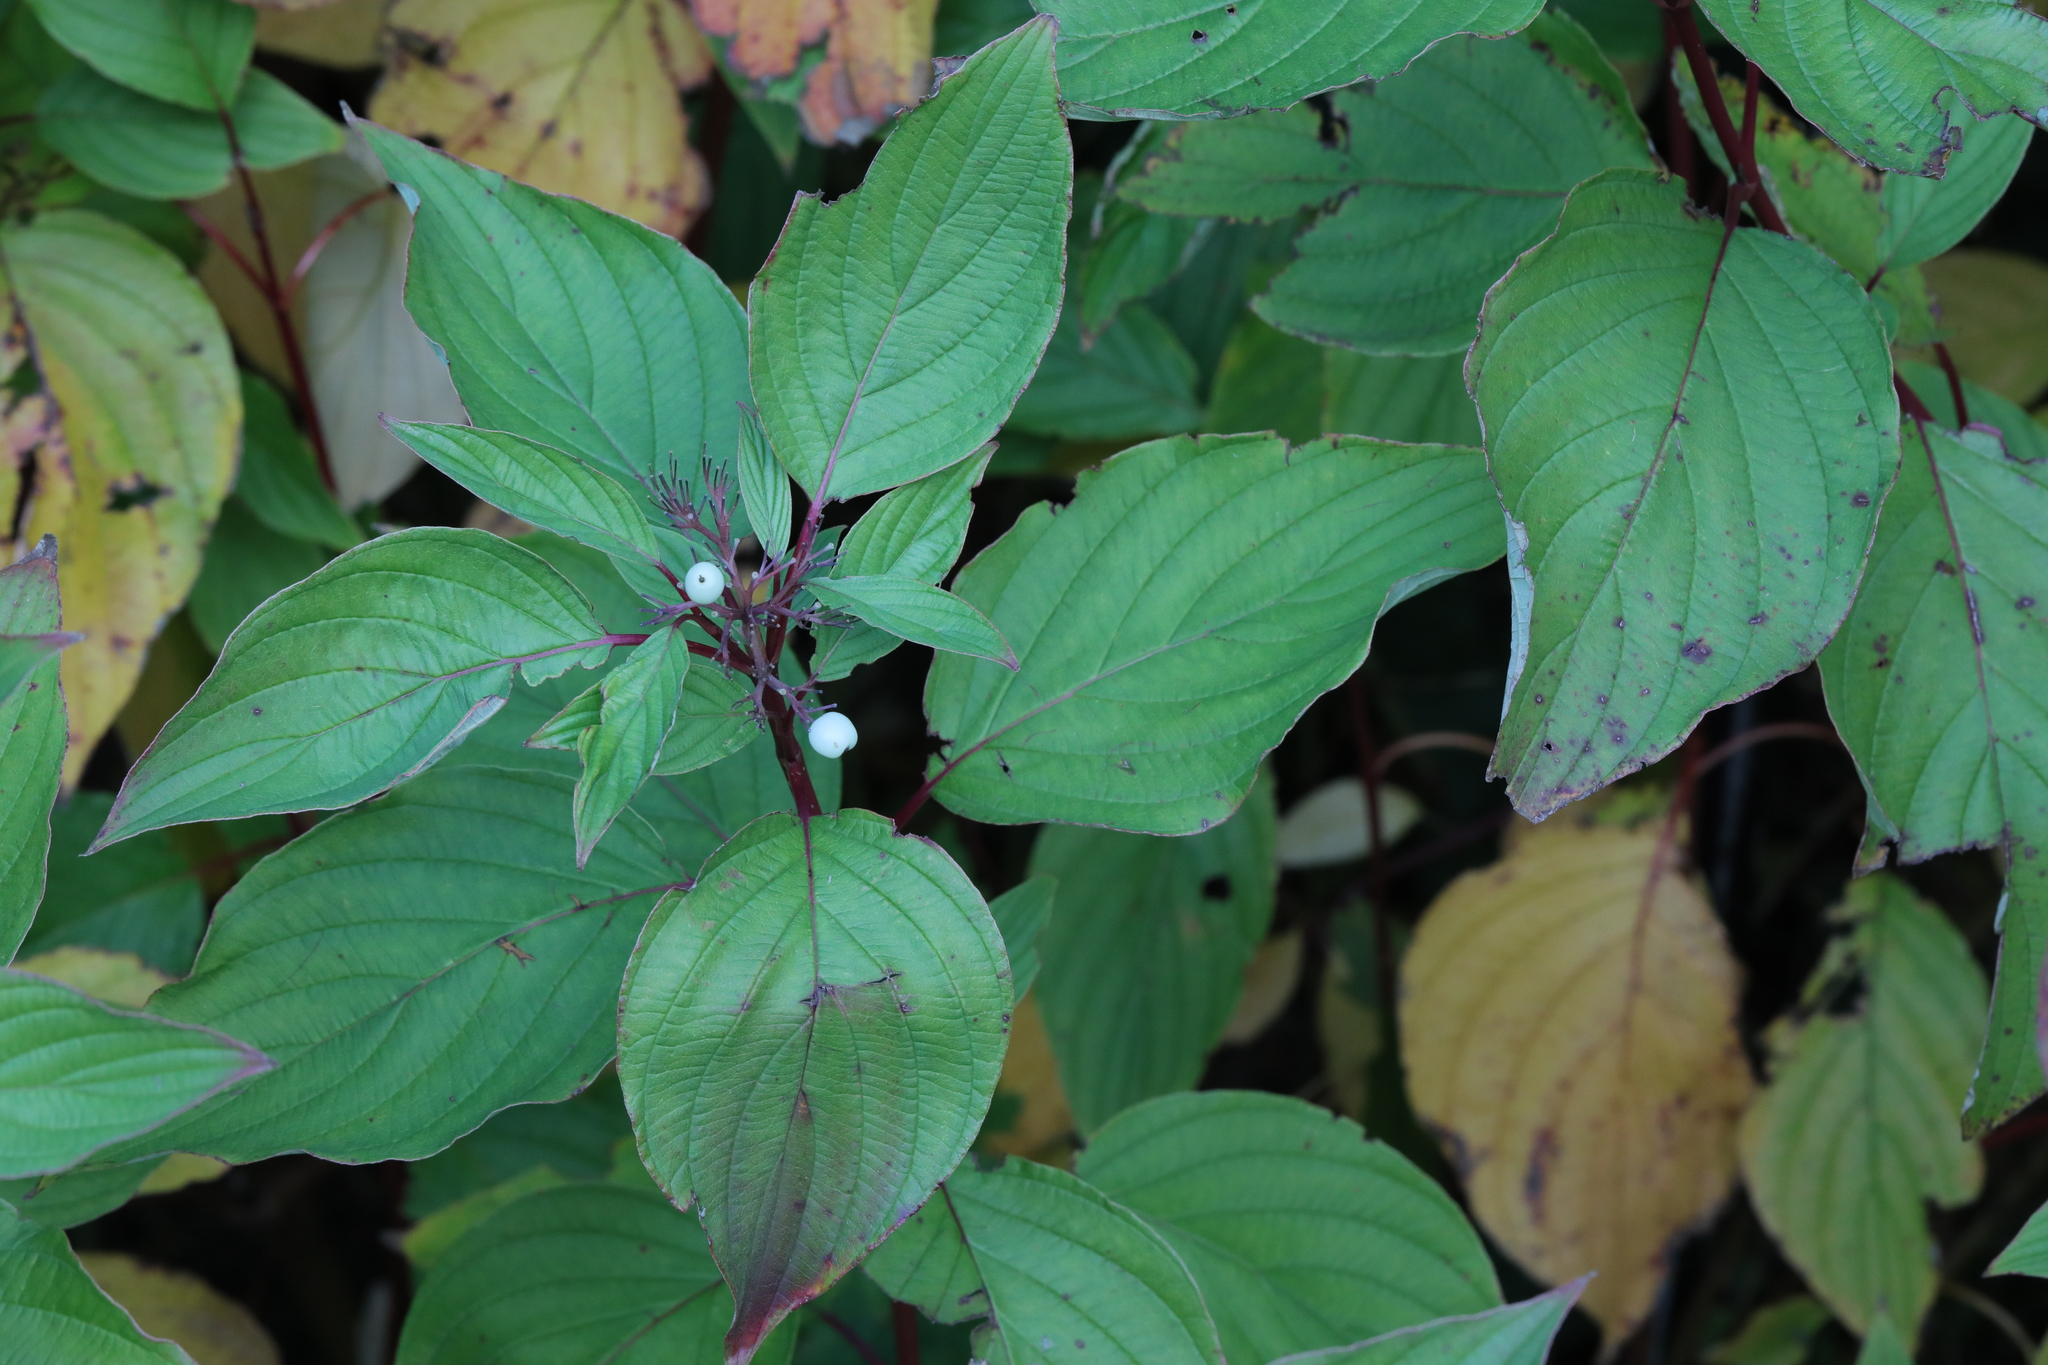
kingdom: Plantae
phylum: Tracheophyta
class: Magnoliopsida
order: Cornales
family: Cornaceae
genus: Cornus
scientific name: Cornus alba
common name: White dogwood
